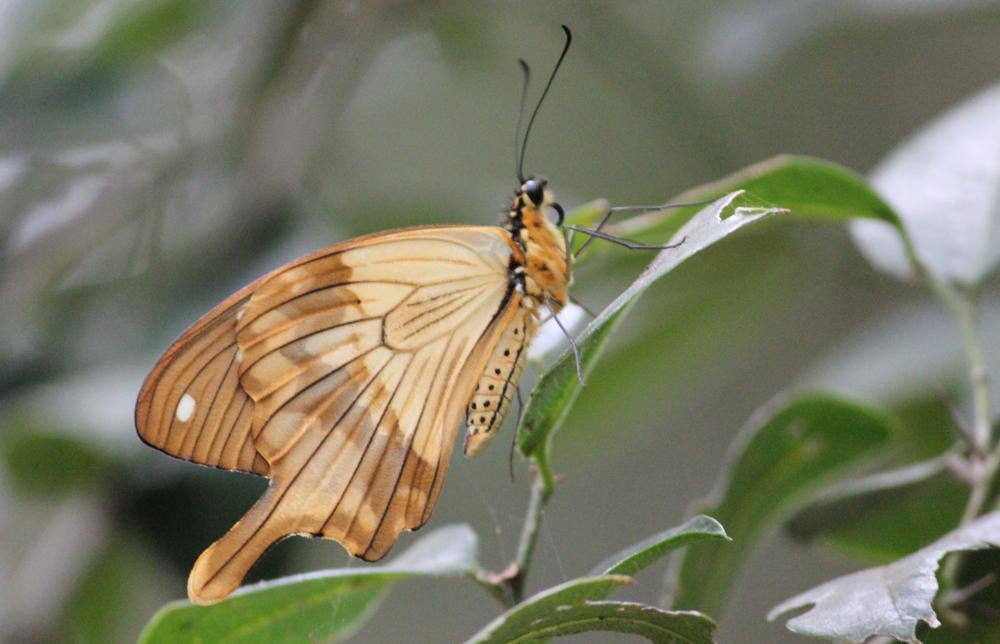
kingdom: Animalia
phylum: Arthropoda
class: Insecta
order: Lepidoptera
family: Papilionidae
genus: Papilio
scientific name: Papilio dardanus
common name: Flying handkerchief
